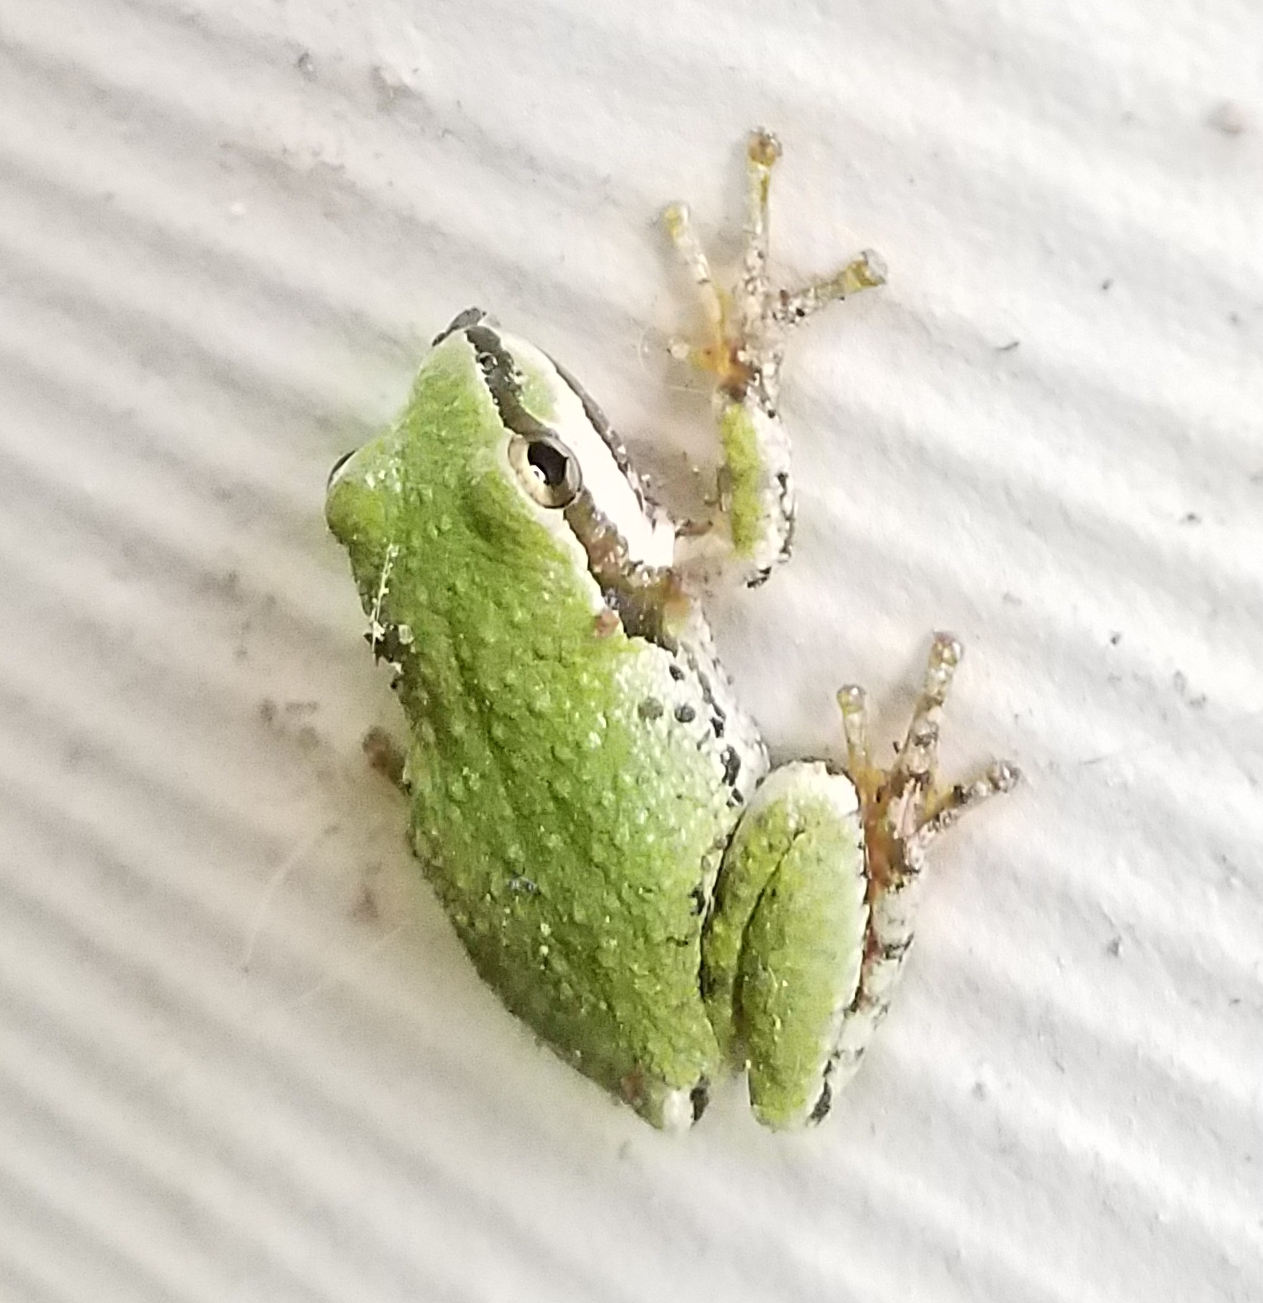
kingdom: Animalia
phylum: Chordata
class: Amphibia
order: Anura
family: Hylidae
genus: Pseudacris
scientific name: Pseudacris regilla
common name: Pacific chorus frog
